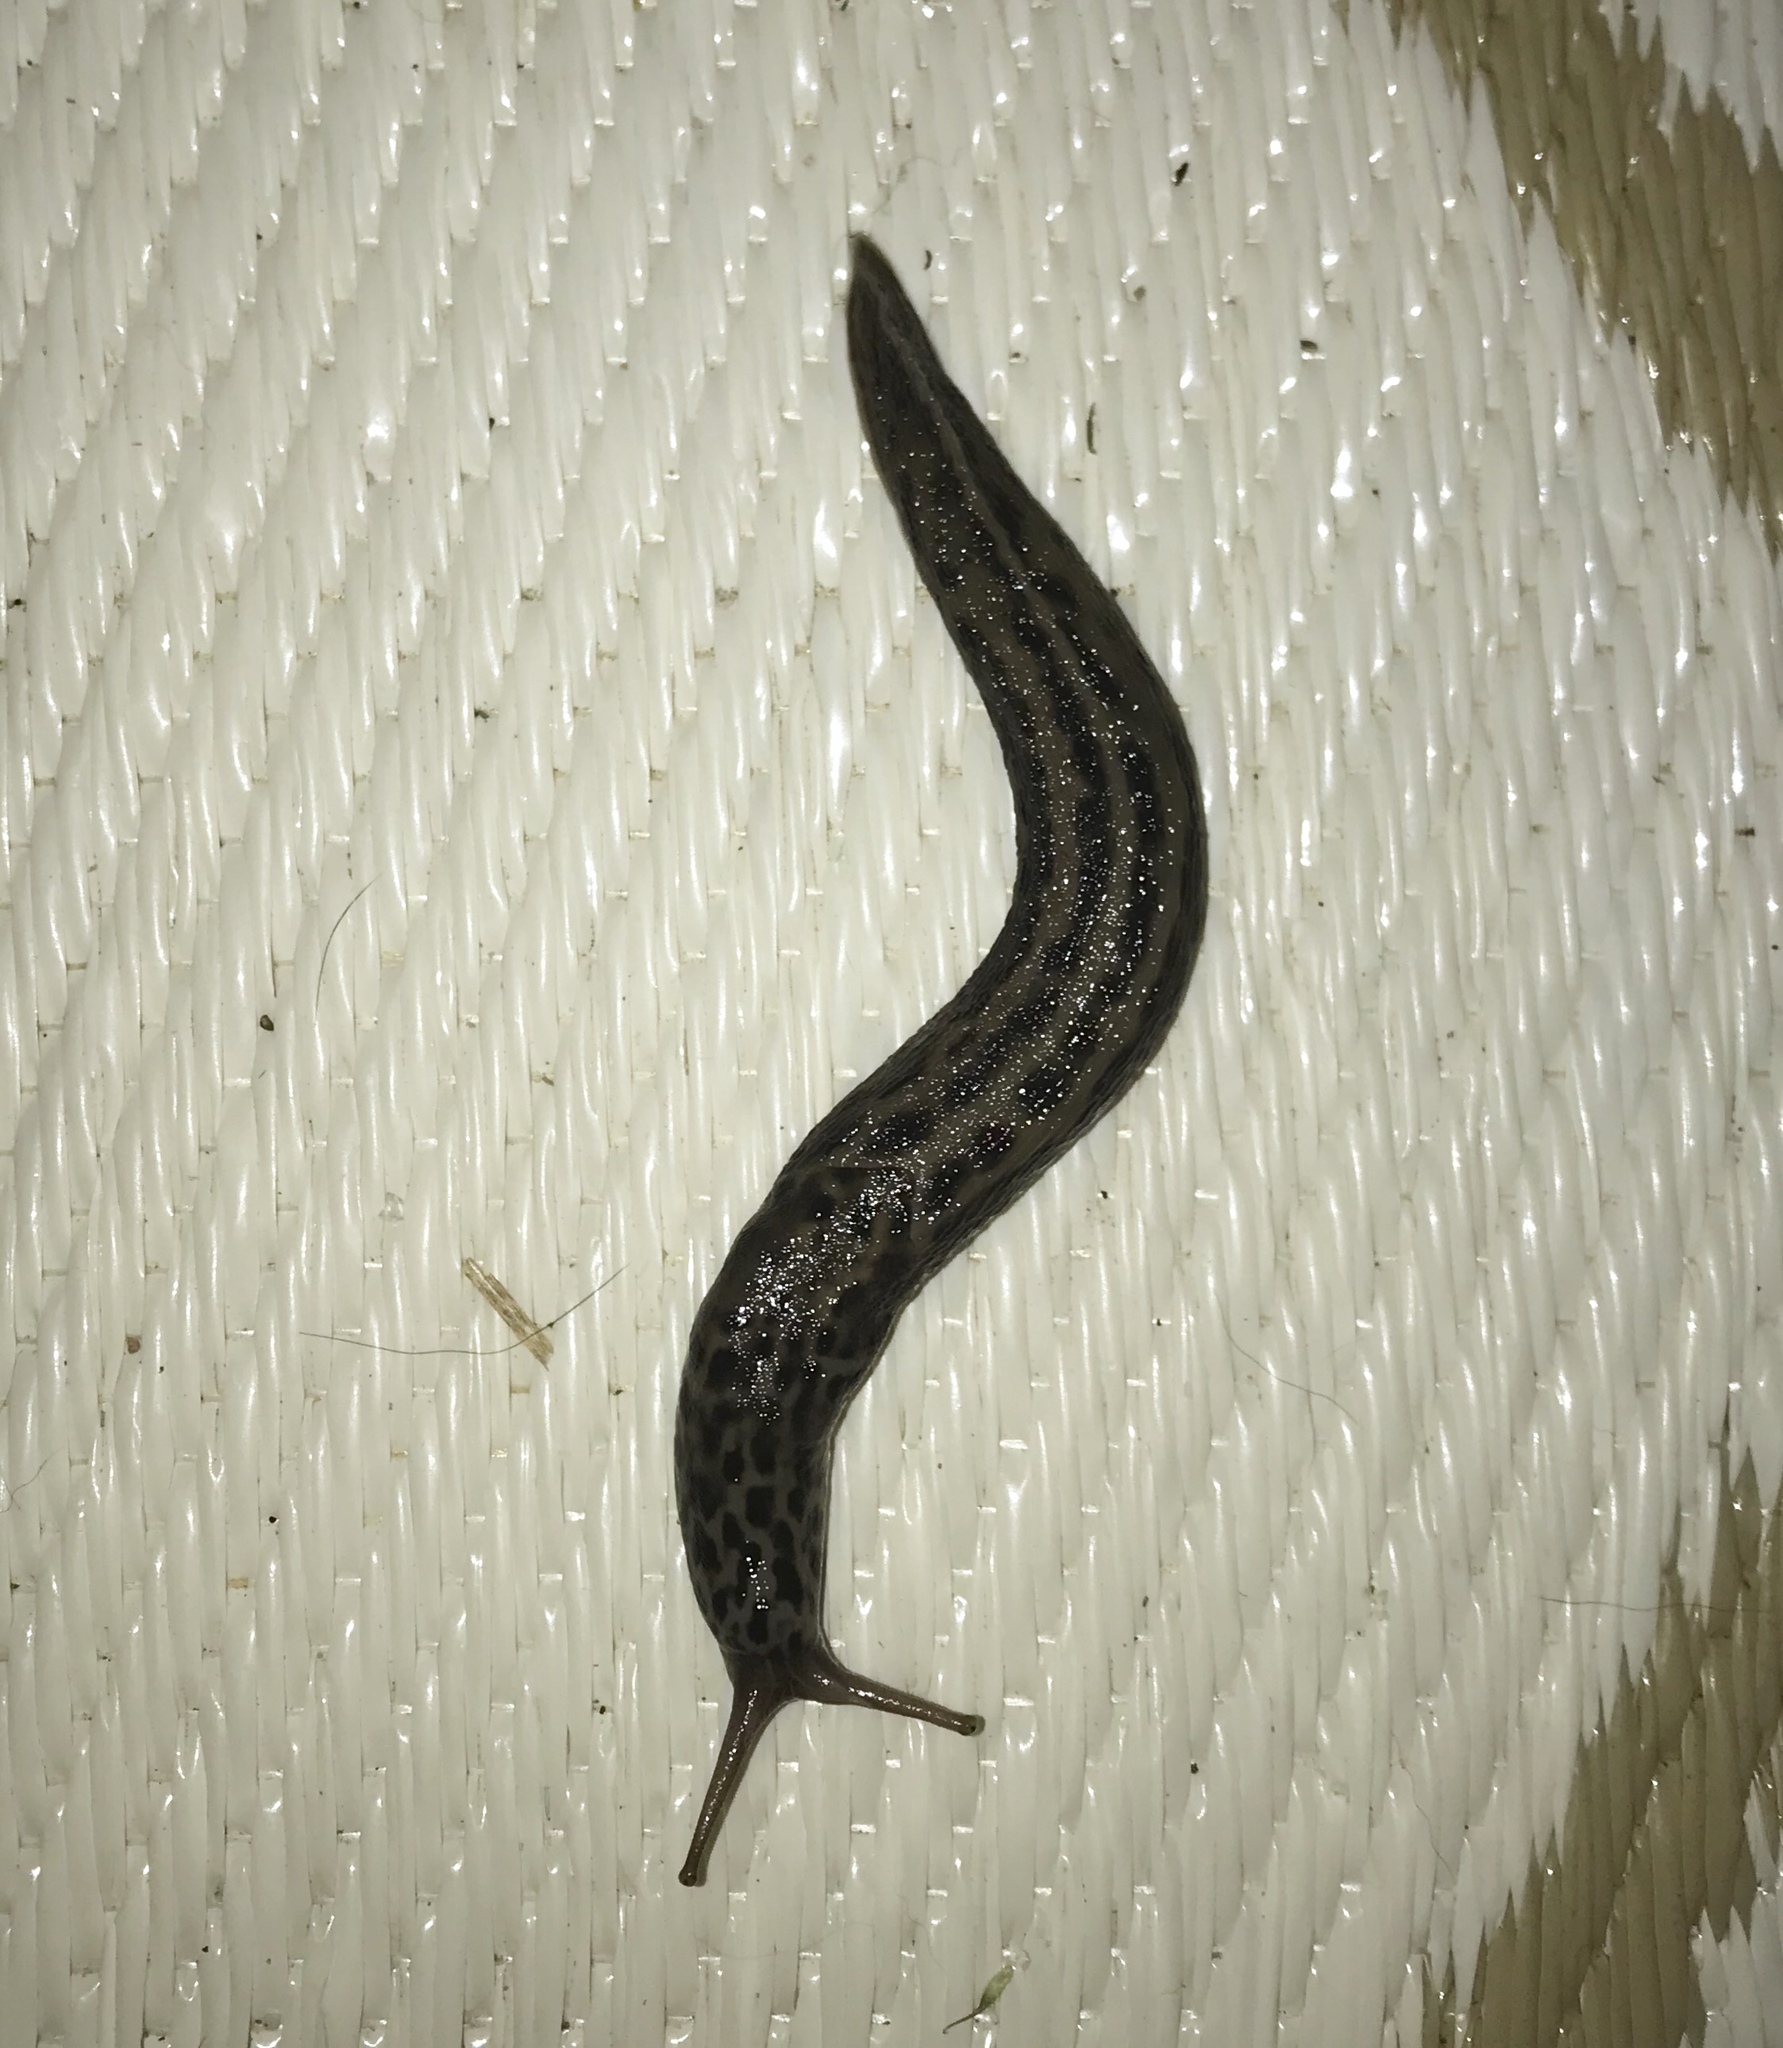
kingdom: Animalia
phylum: Mollusca
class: Gastropoda
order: Stylommatophora
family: Limacidae
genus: Limax
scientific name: Limax maximus
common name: Great grey slug
